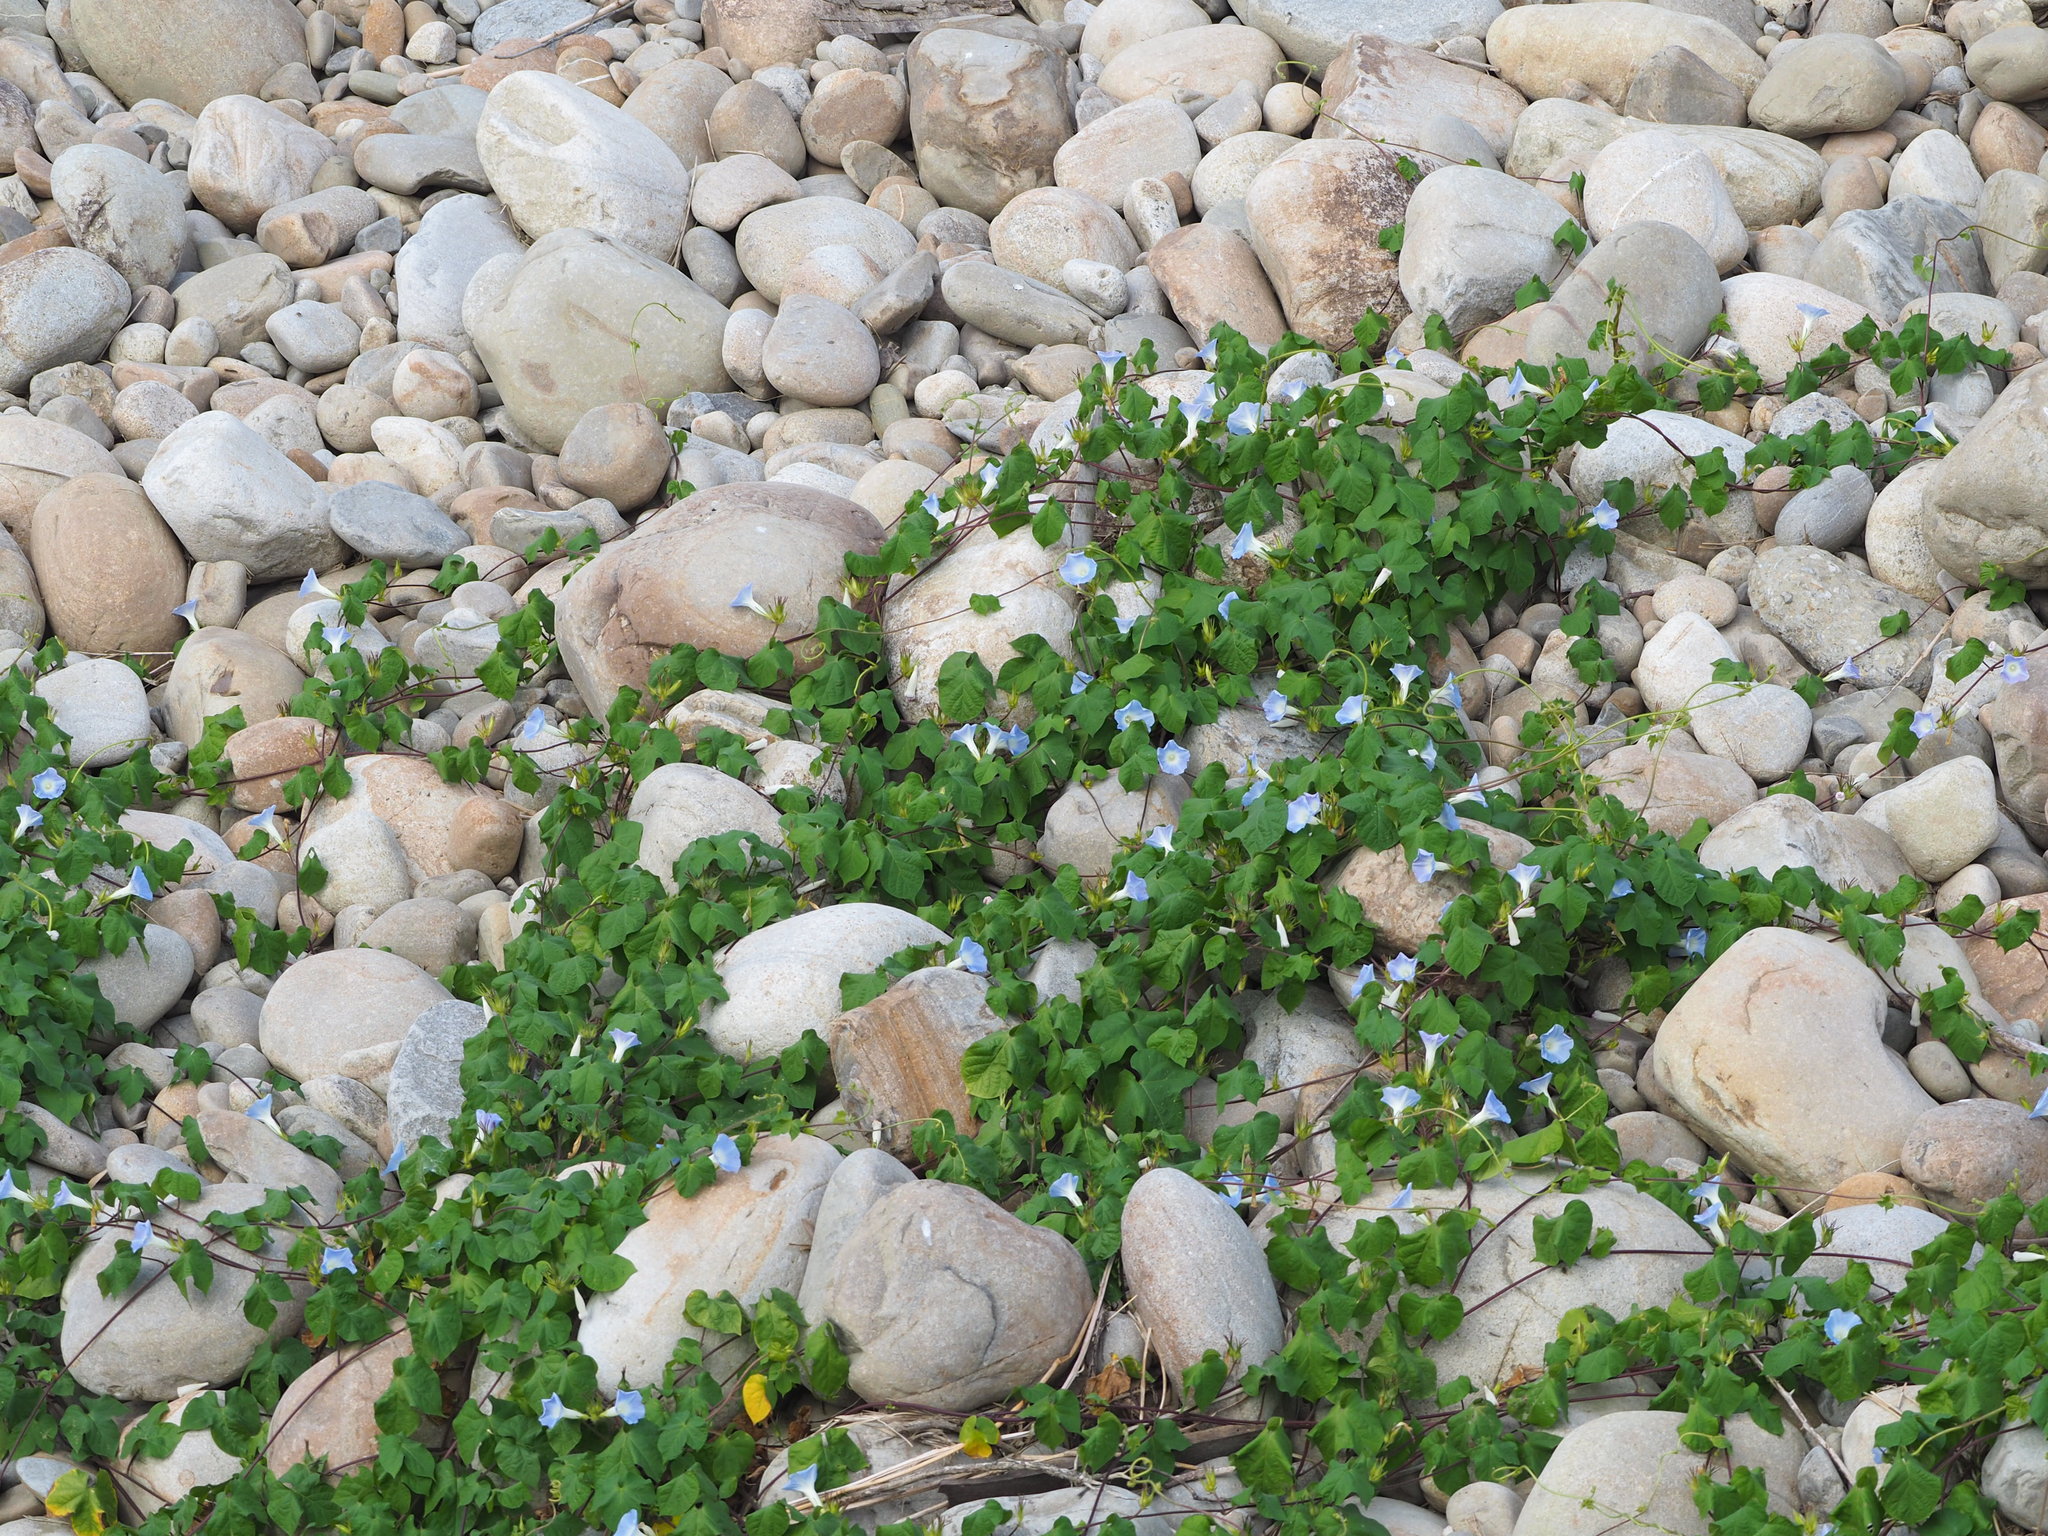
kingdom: Plantae
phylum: Tracheophyta
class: Magnoliopsida
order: Solanales
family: Convolvulaceae
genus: Ipomoea
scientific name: Ipomoea nil
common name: Japanese morning-glory
